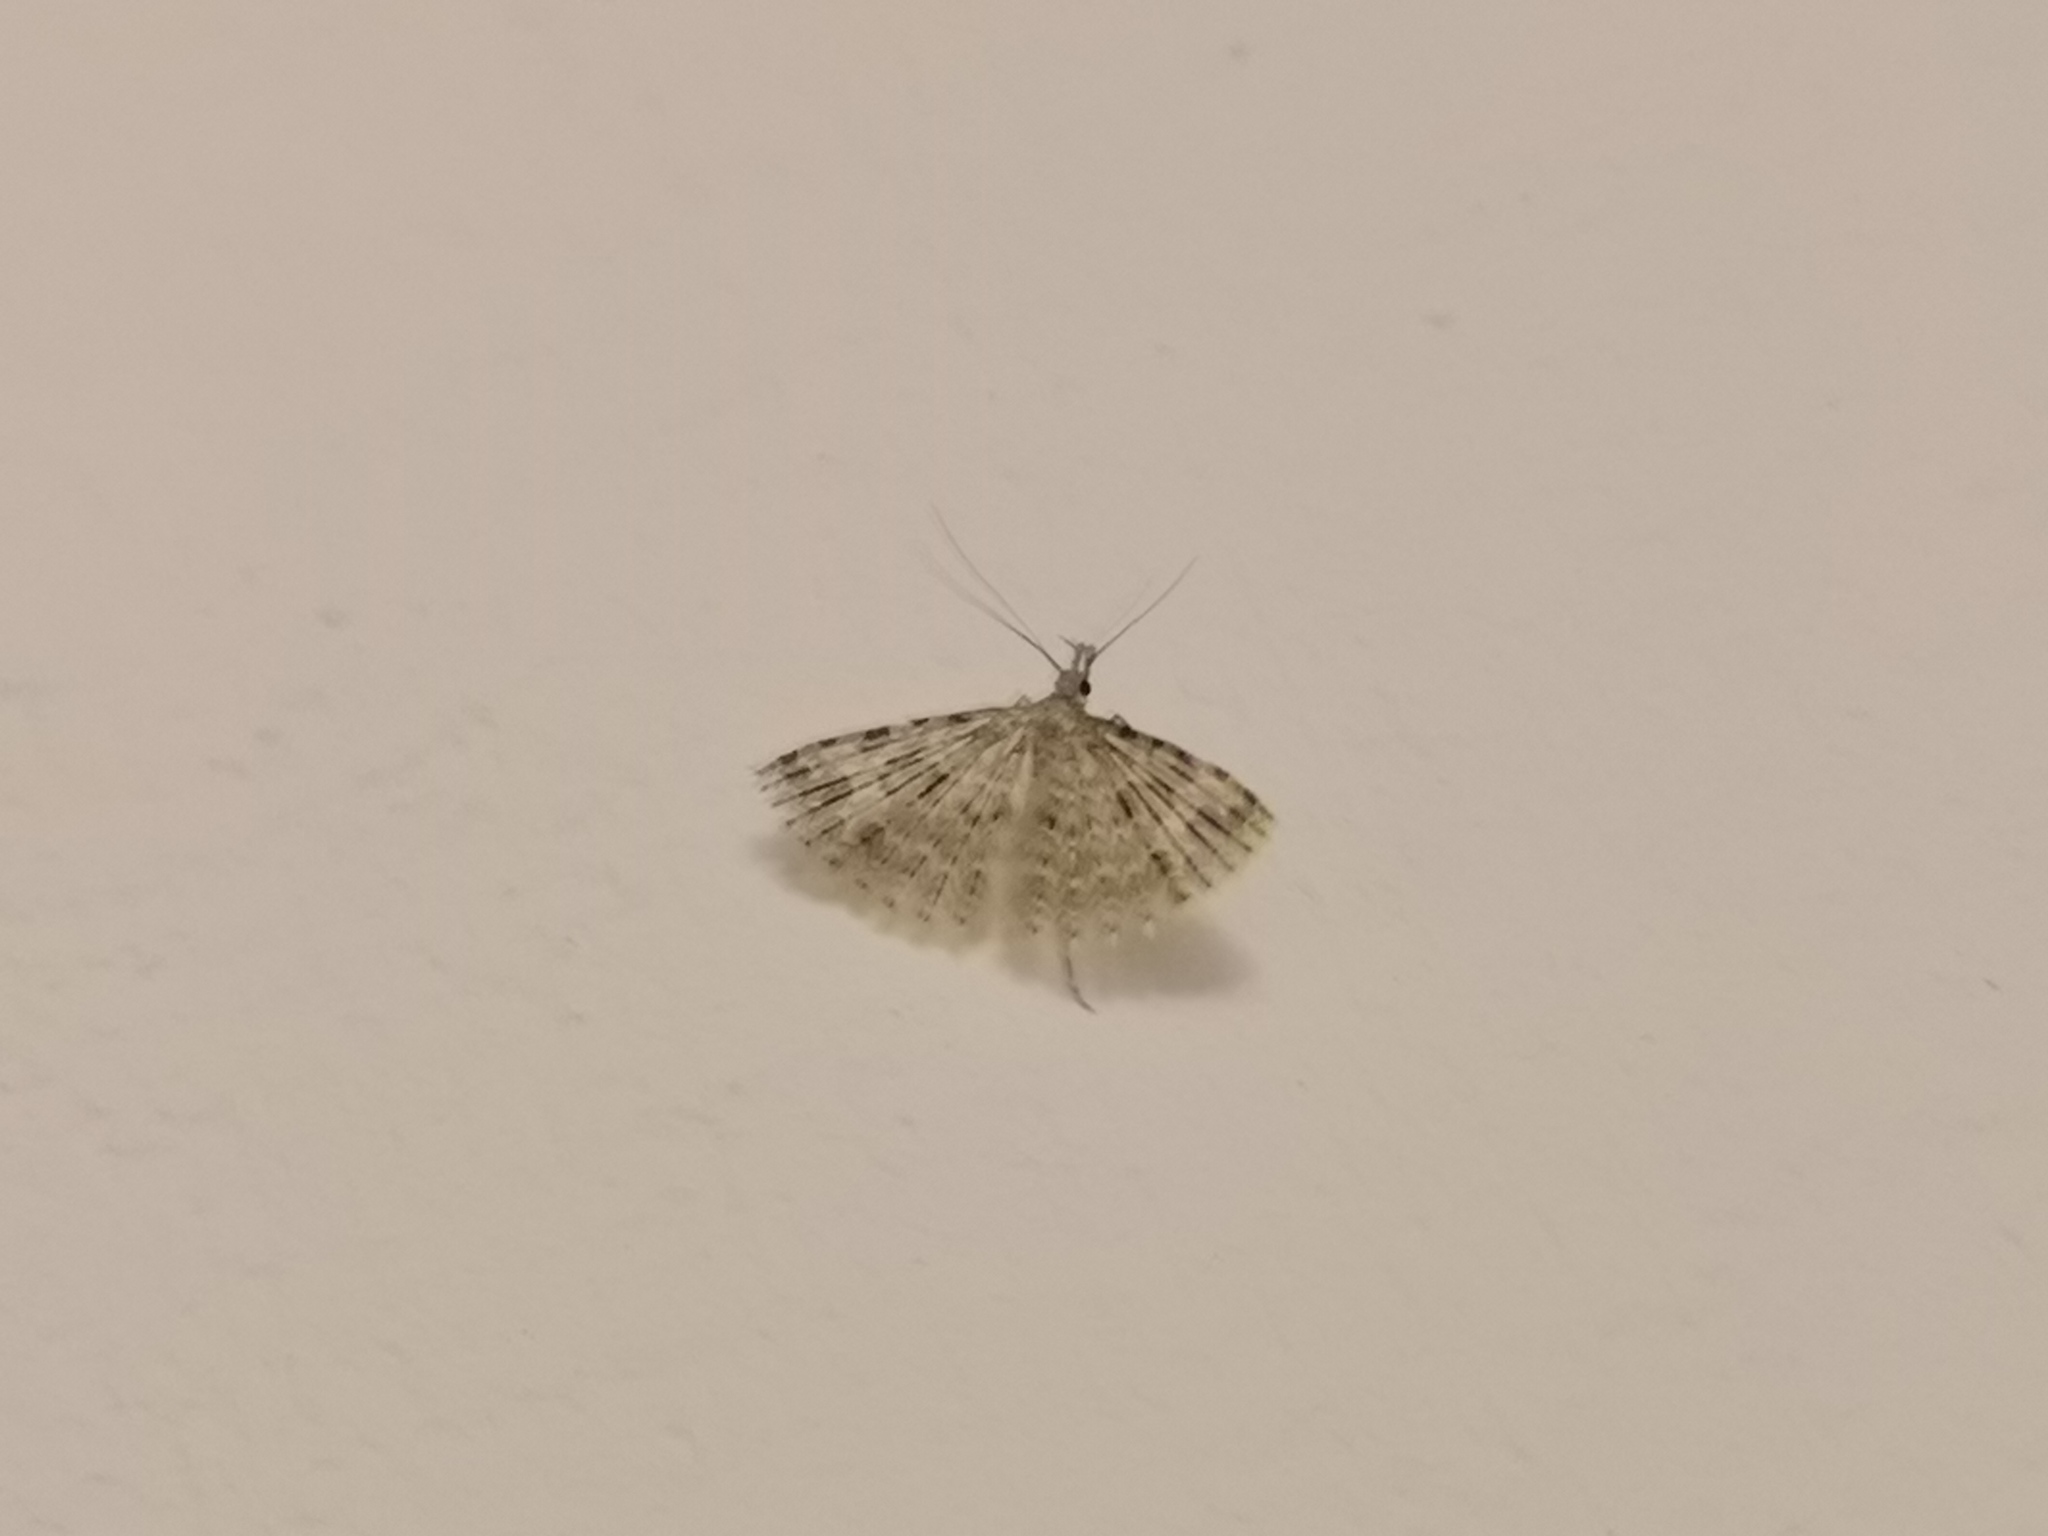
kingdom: Animalia
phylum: Arthropoda
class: Insecta
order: Lepidoptera
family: Alucitidae
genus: Alucita
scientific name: Alucita hexadactyla
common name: Twenty-plume moth
